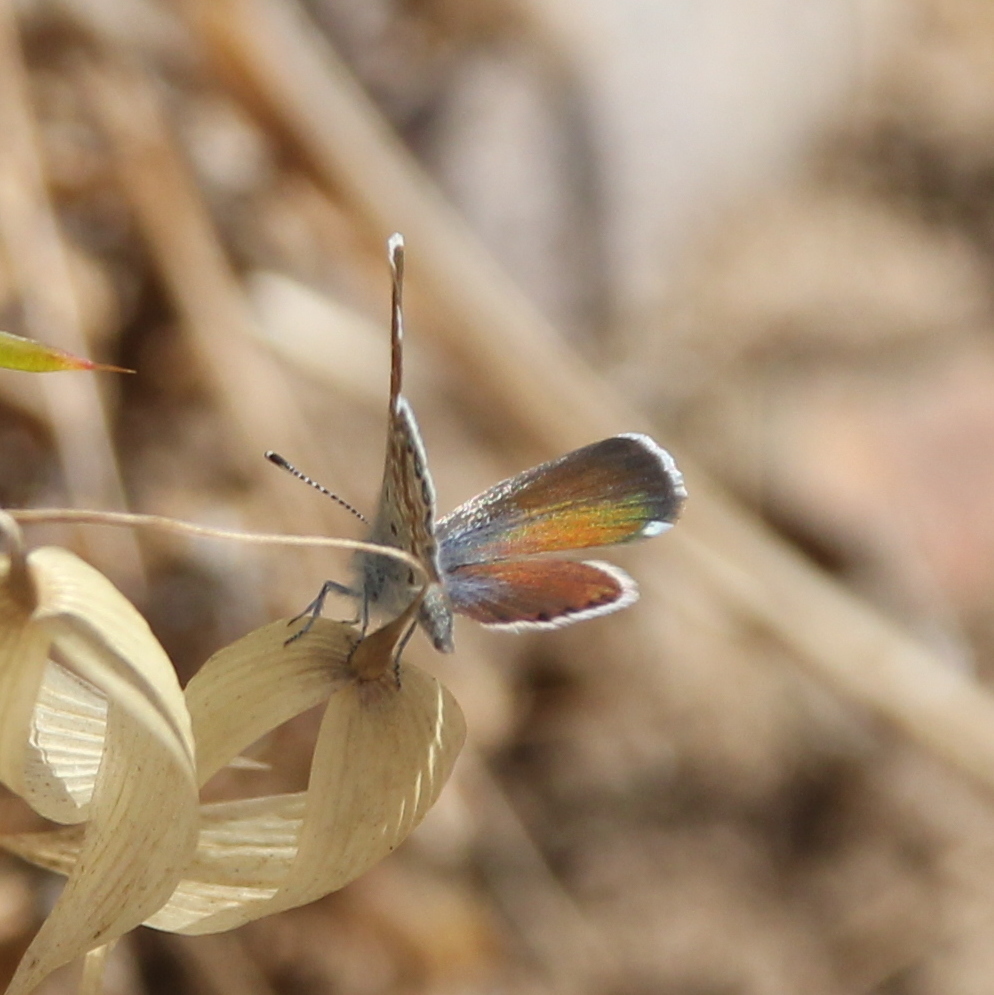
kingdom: Animalia
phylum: Arthropoda
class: Insecta
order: Lepidoptera
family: Lycaenidae
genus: Brephidium
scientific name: Brephidium exilis
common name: Pygmy blue
